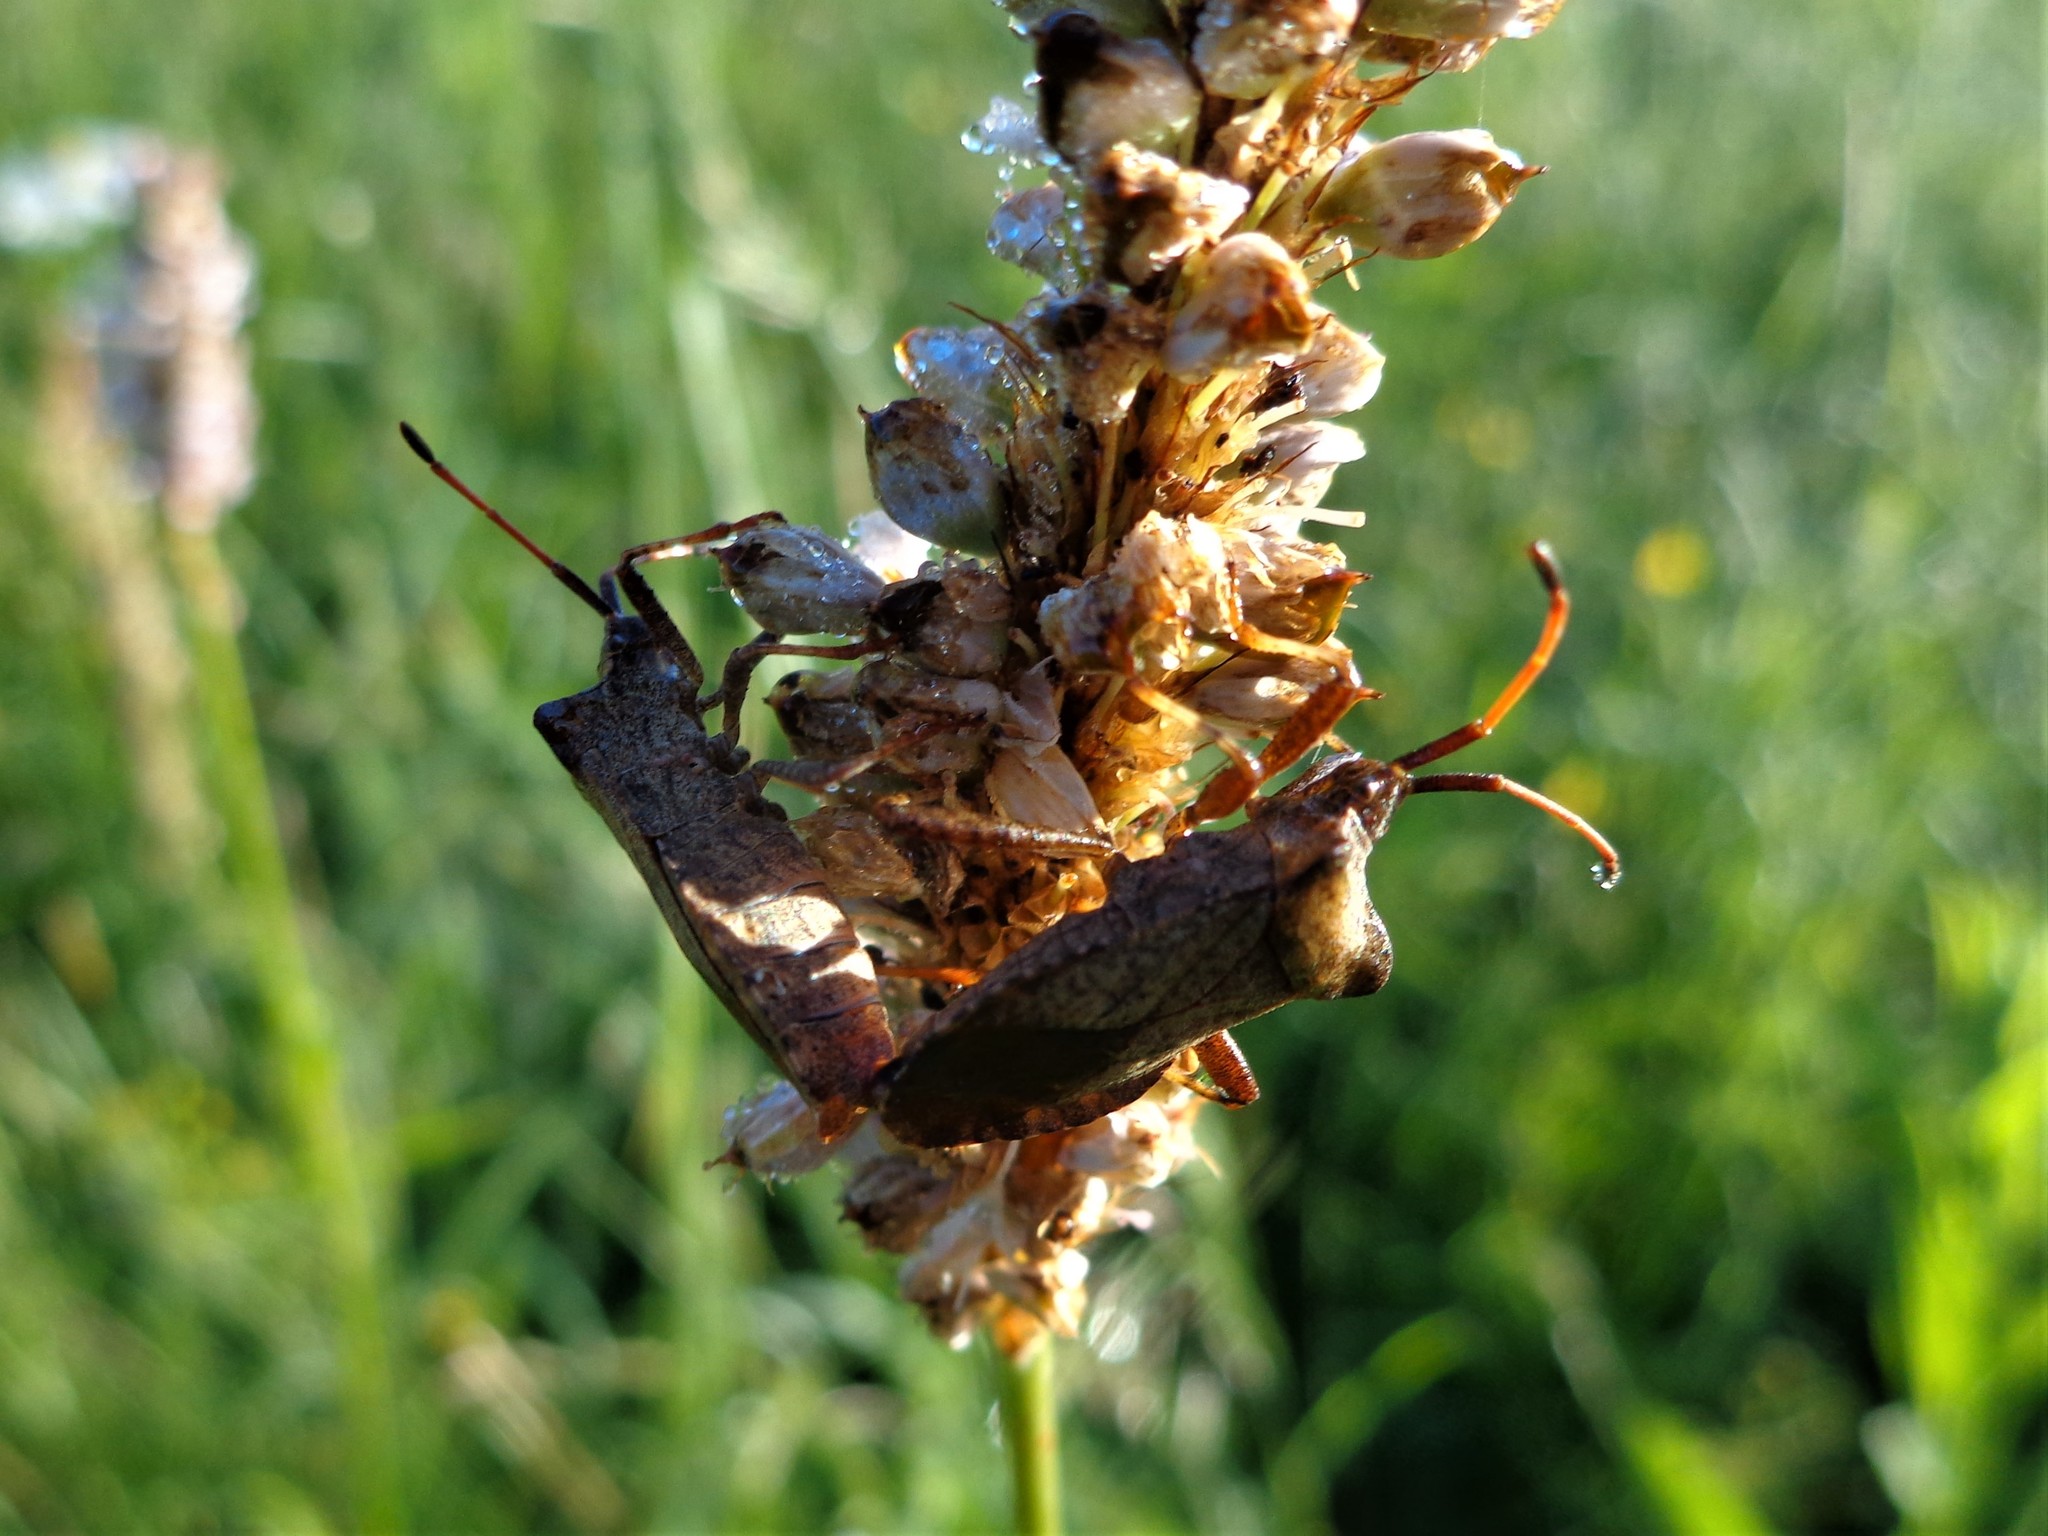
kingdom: Animalia
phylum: Arthropoda
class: Insecta
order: Hemiptera
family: Coreidae
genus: Coreus
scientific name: Coreus marginatus
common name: Dock bug
